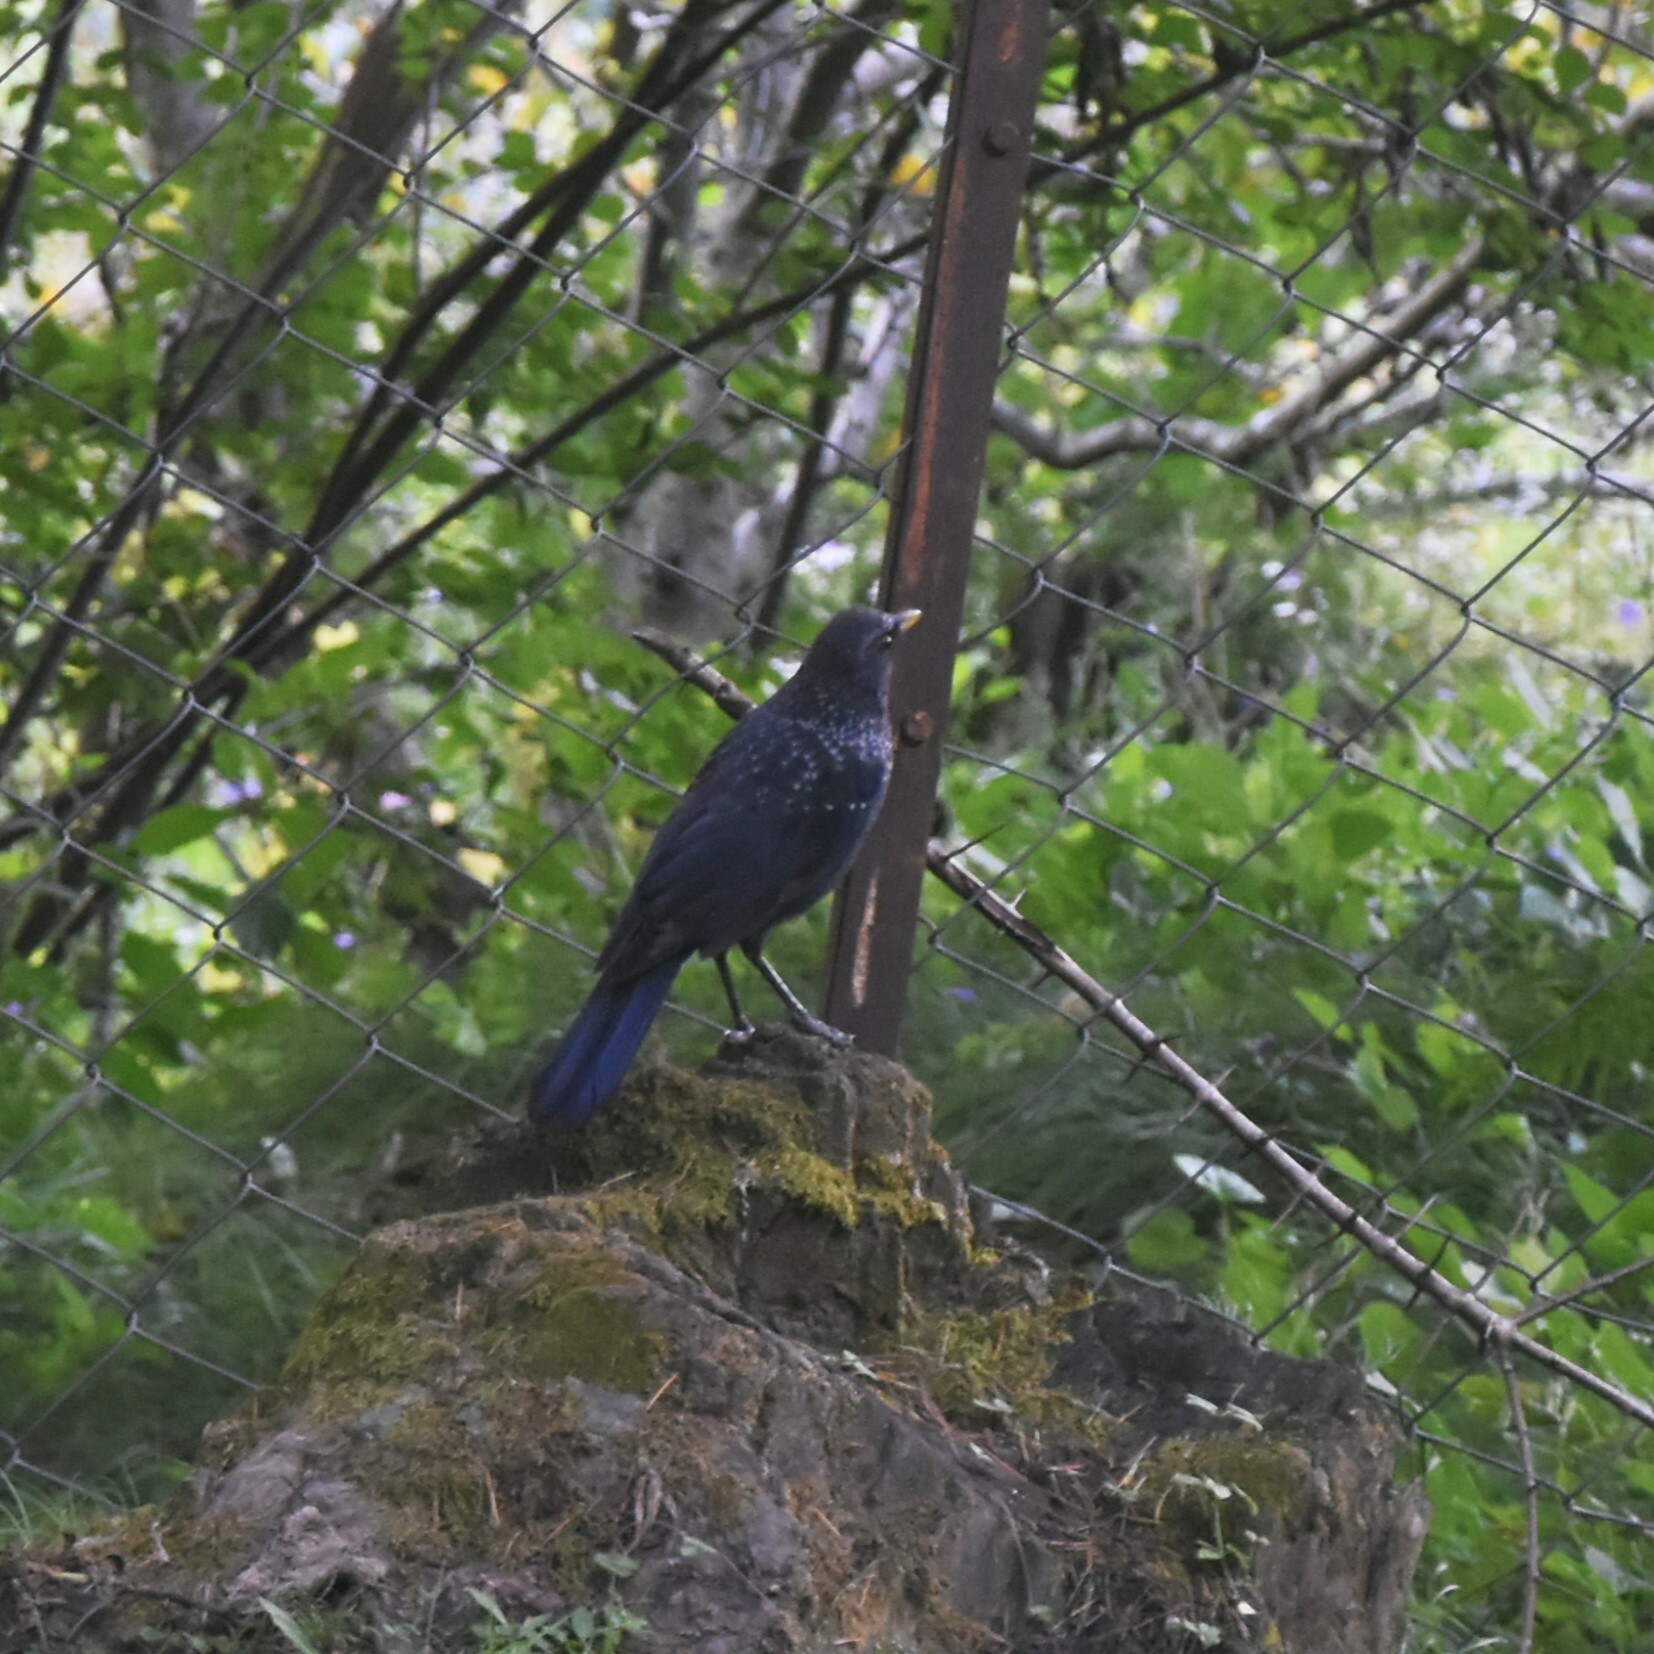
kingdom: Animalia
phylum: Chordata
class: Aves
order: Passeriformes
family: Muscicapidae
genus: Myophonus
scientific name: Myophonus caeruleus
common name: Blue whistling-thrush
